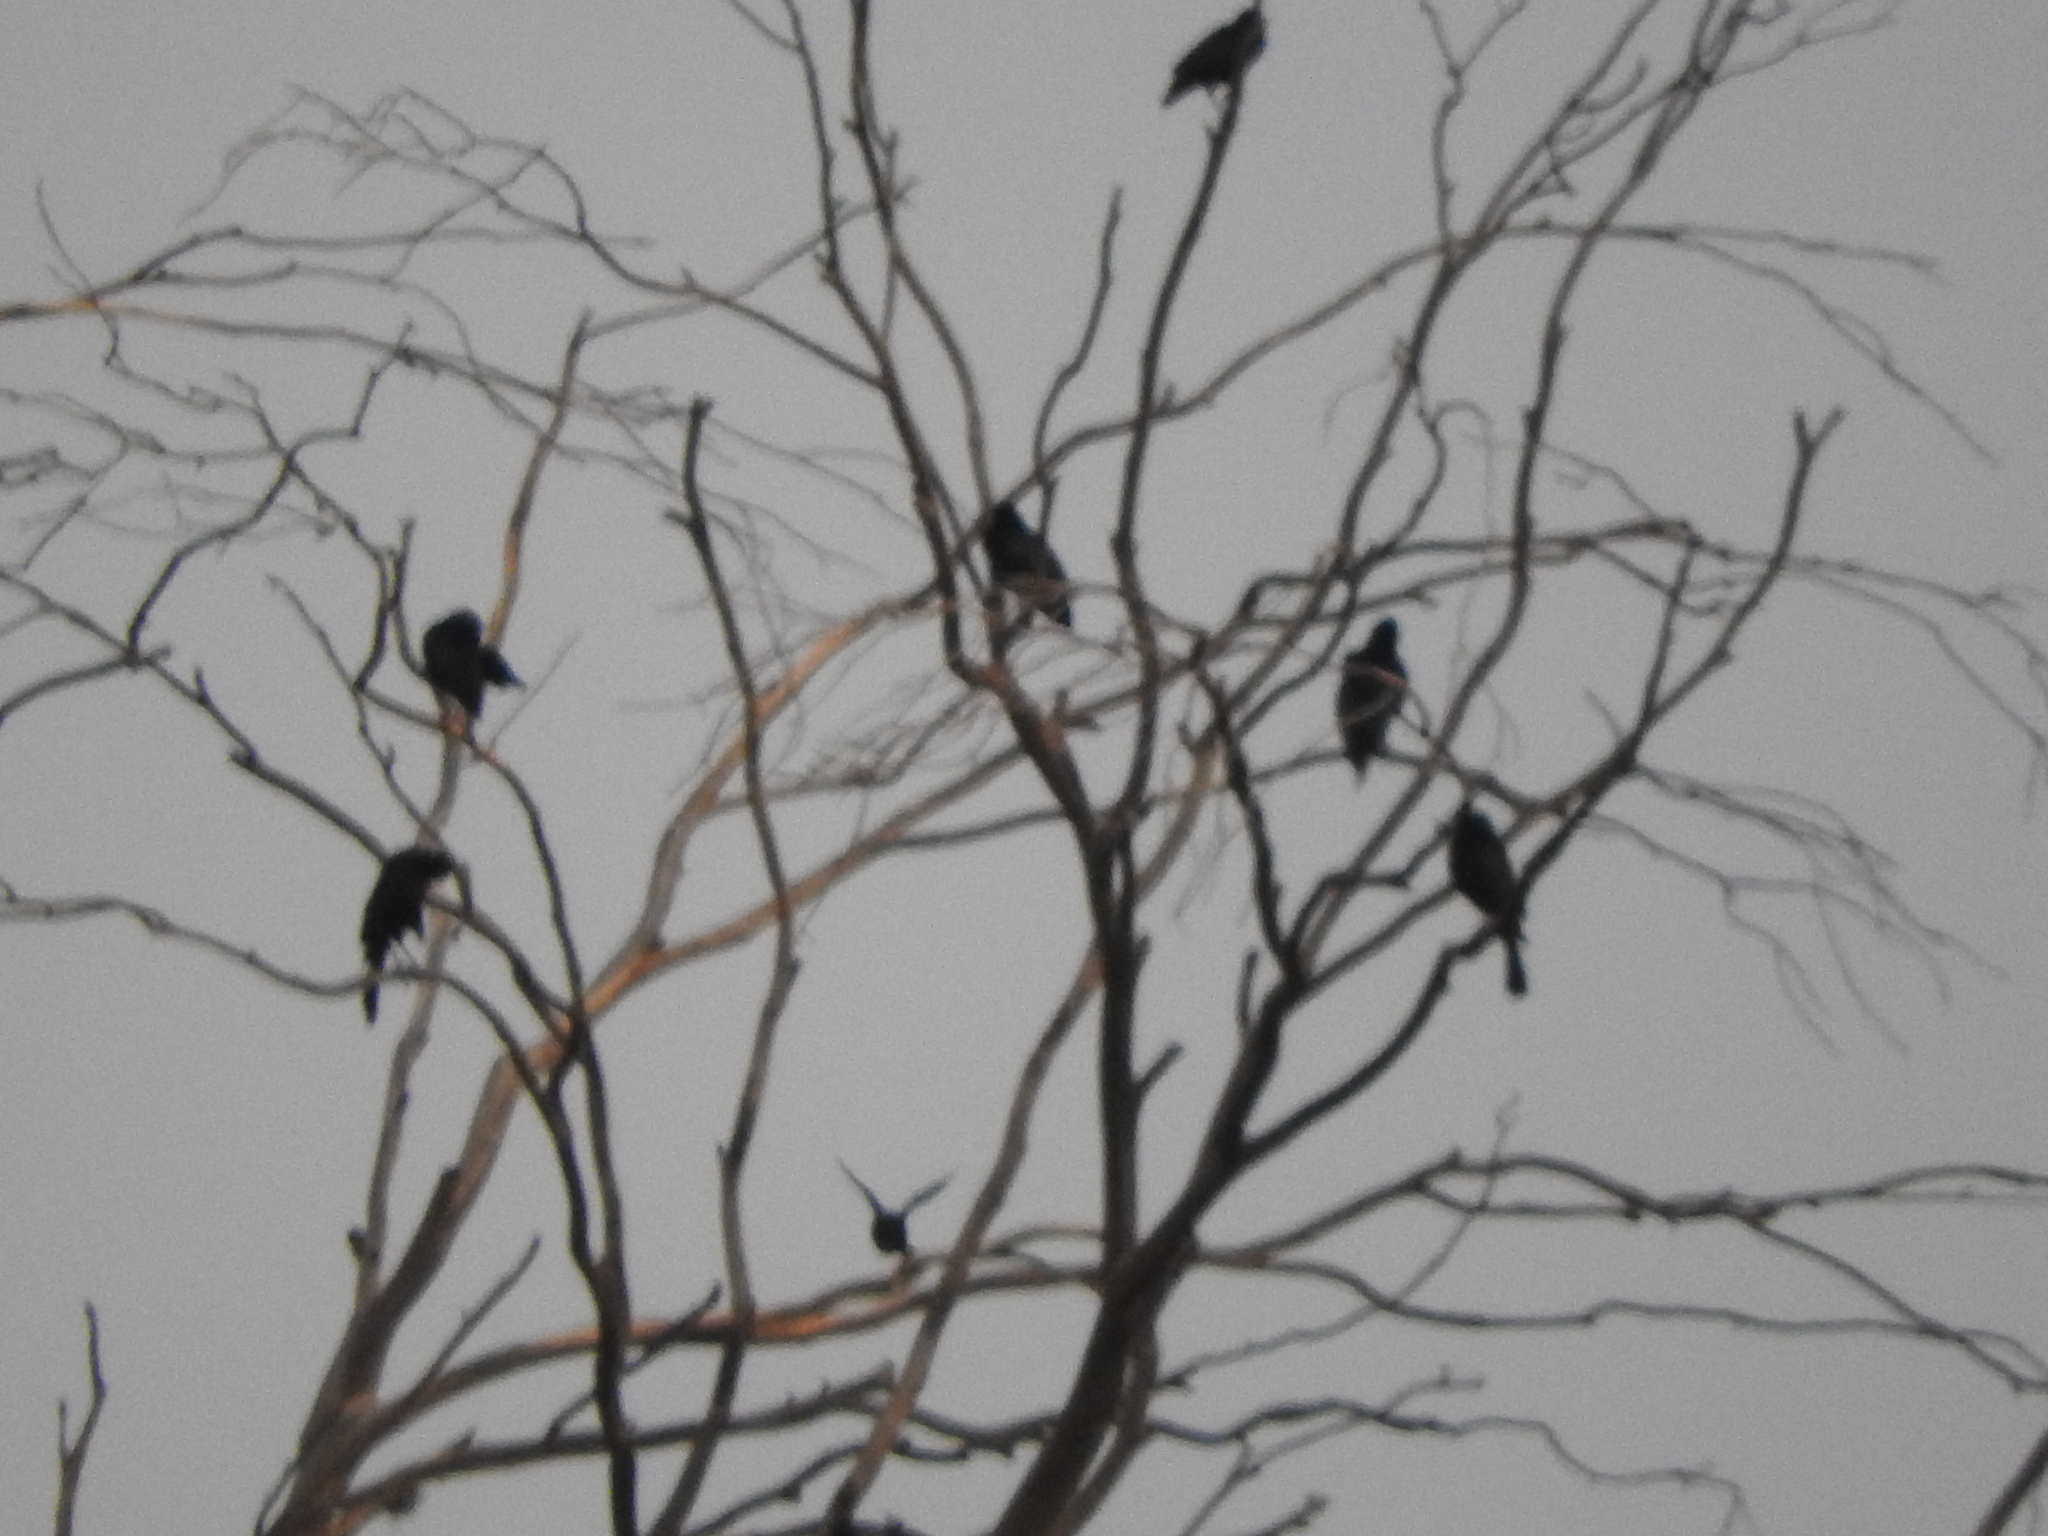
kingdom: Animalia
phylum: Chordata
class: Aves
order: Passeriformes
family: Icteridae
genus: Quiscalus
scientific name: Quiscalus mexicanus
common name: Great-tailed grackle
